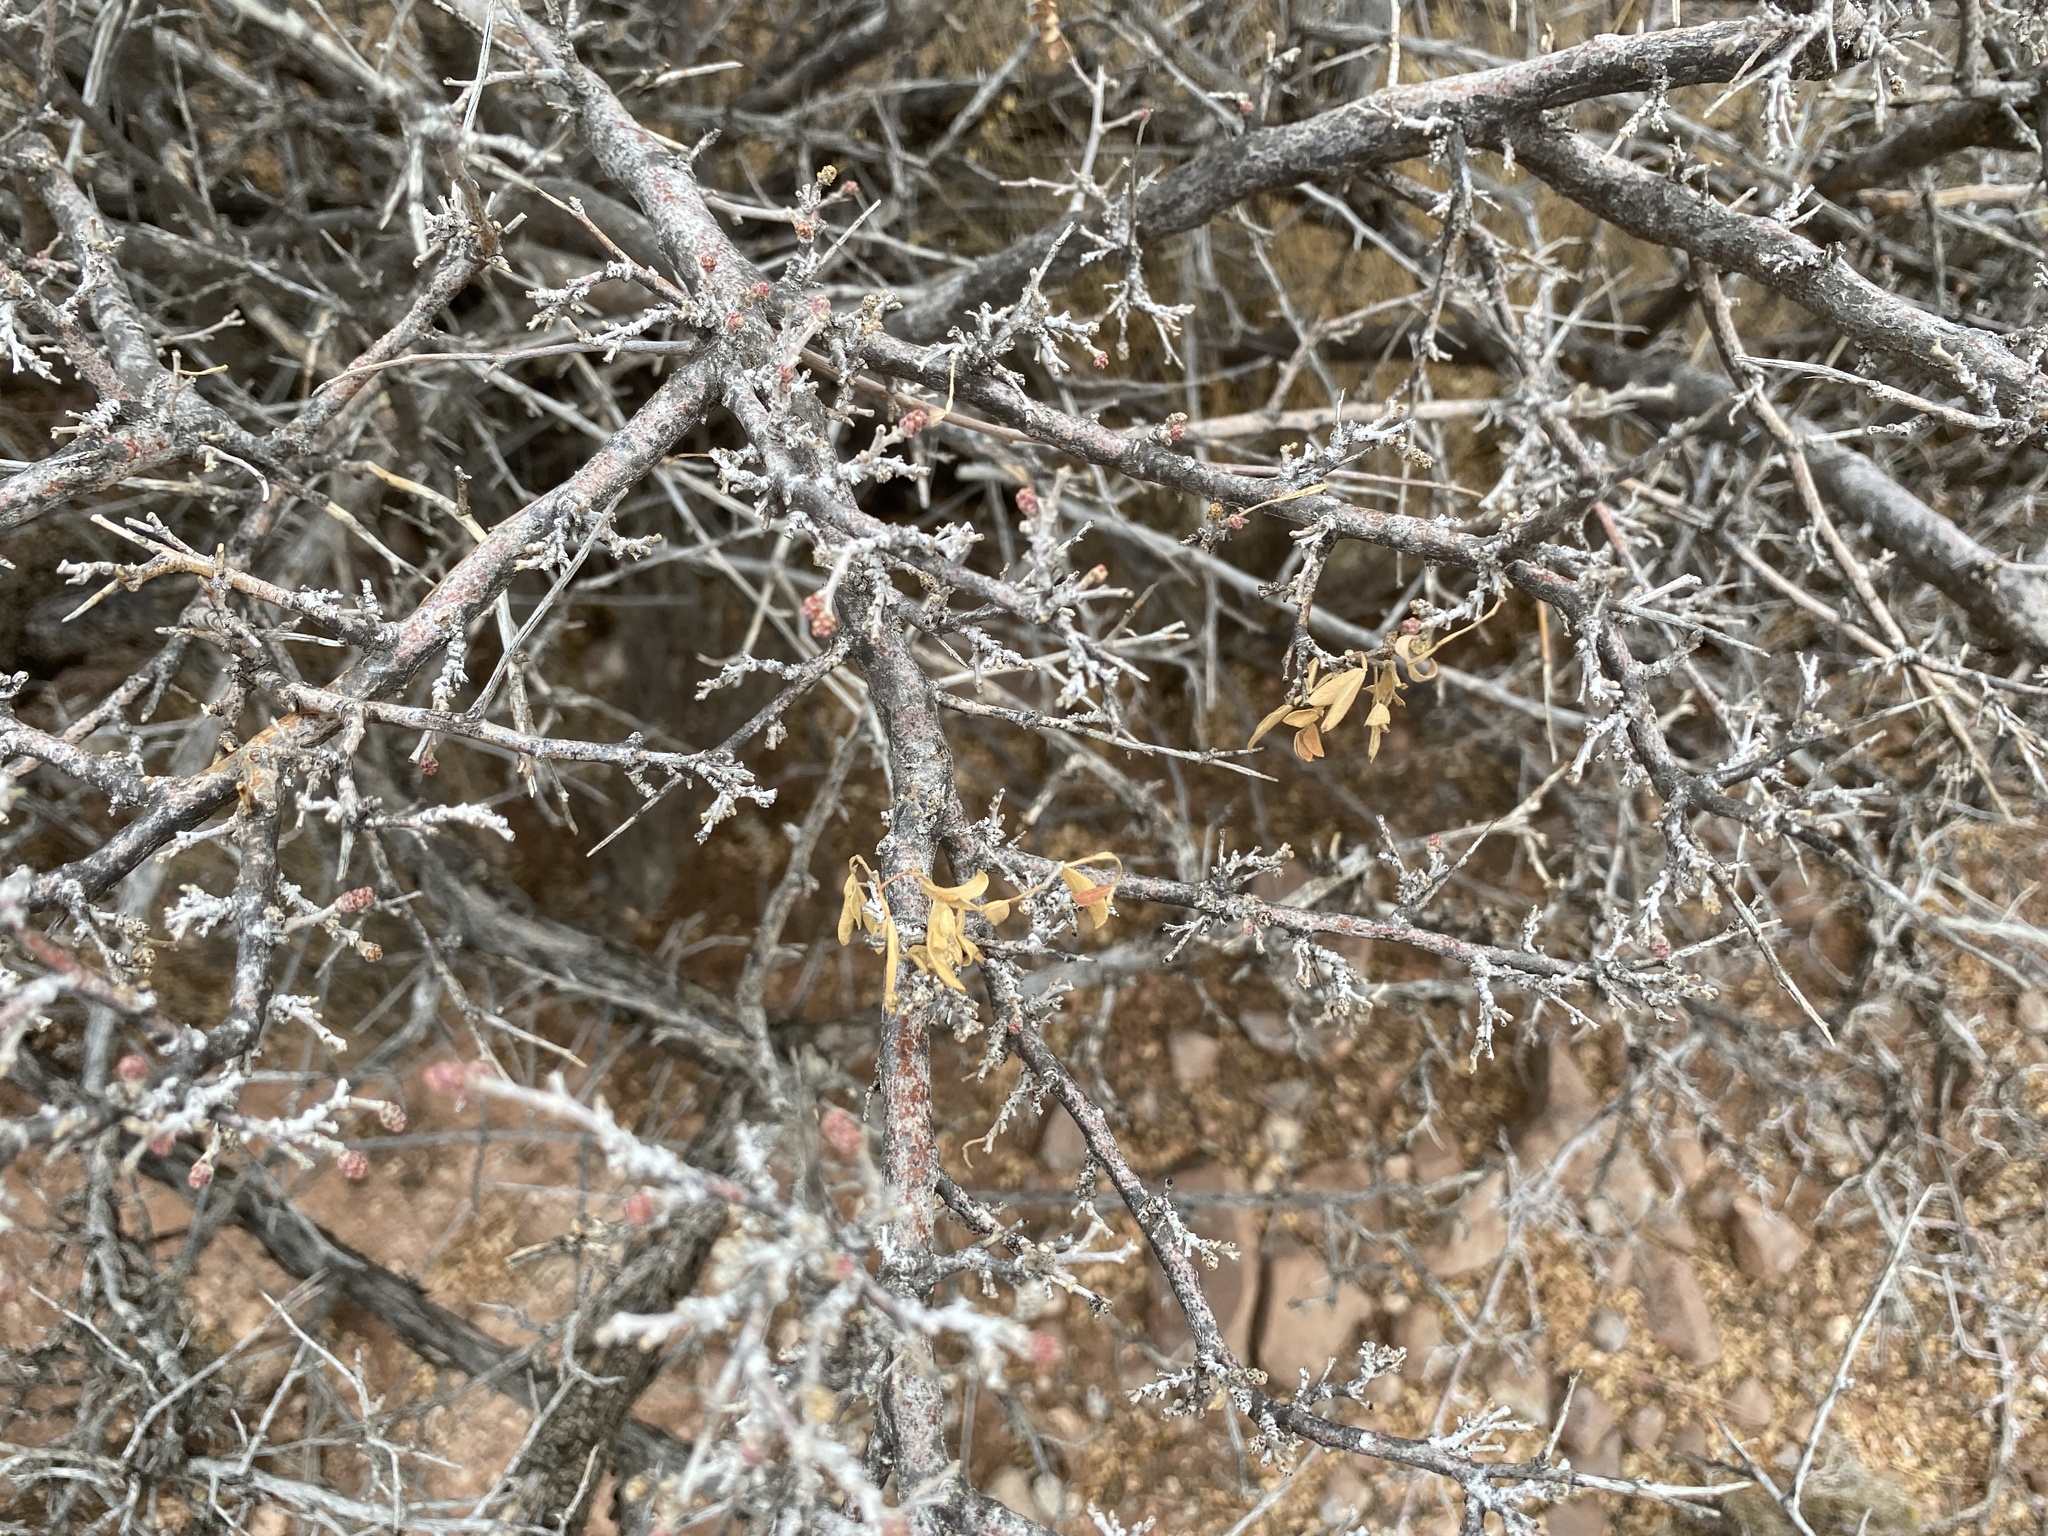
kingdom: Plantae
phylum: Tracheophyta
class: Magnoliopsida
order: Sapindales
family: Anacardiaceae
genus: Rhus
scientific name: Rhus microphylla
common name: Desert sumac
